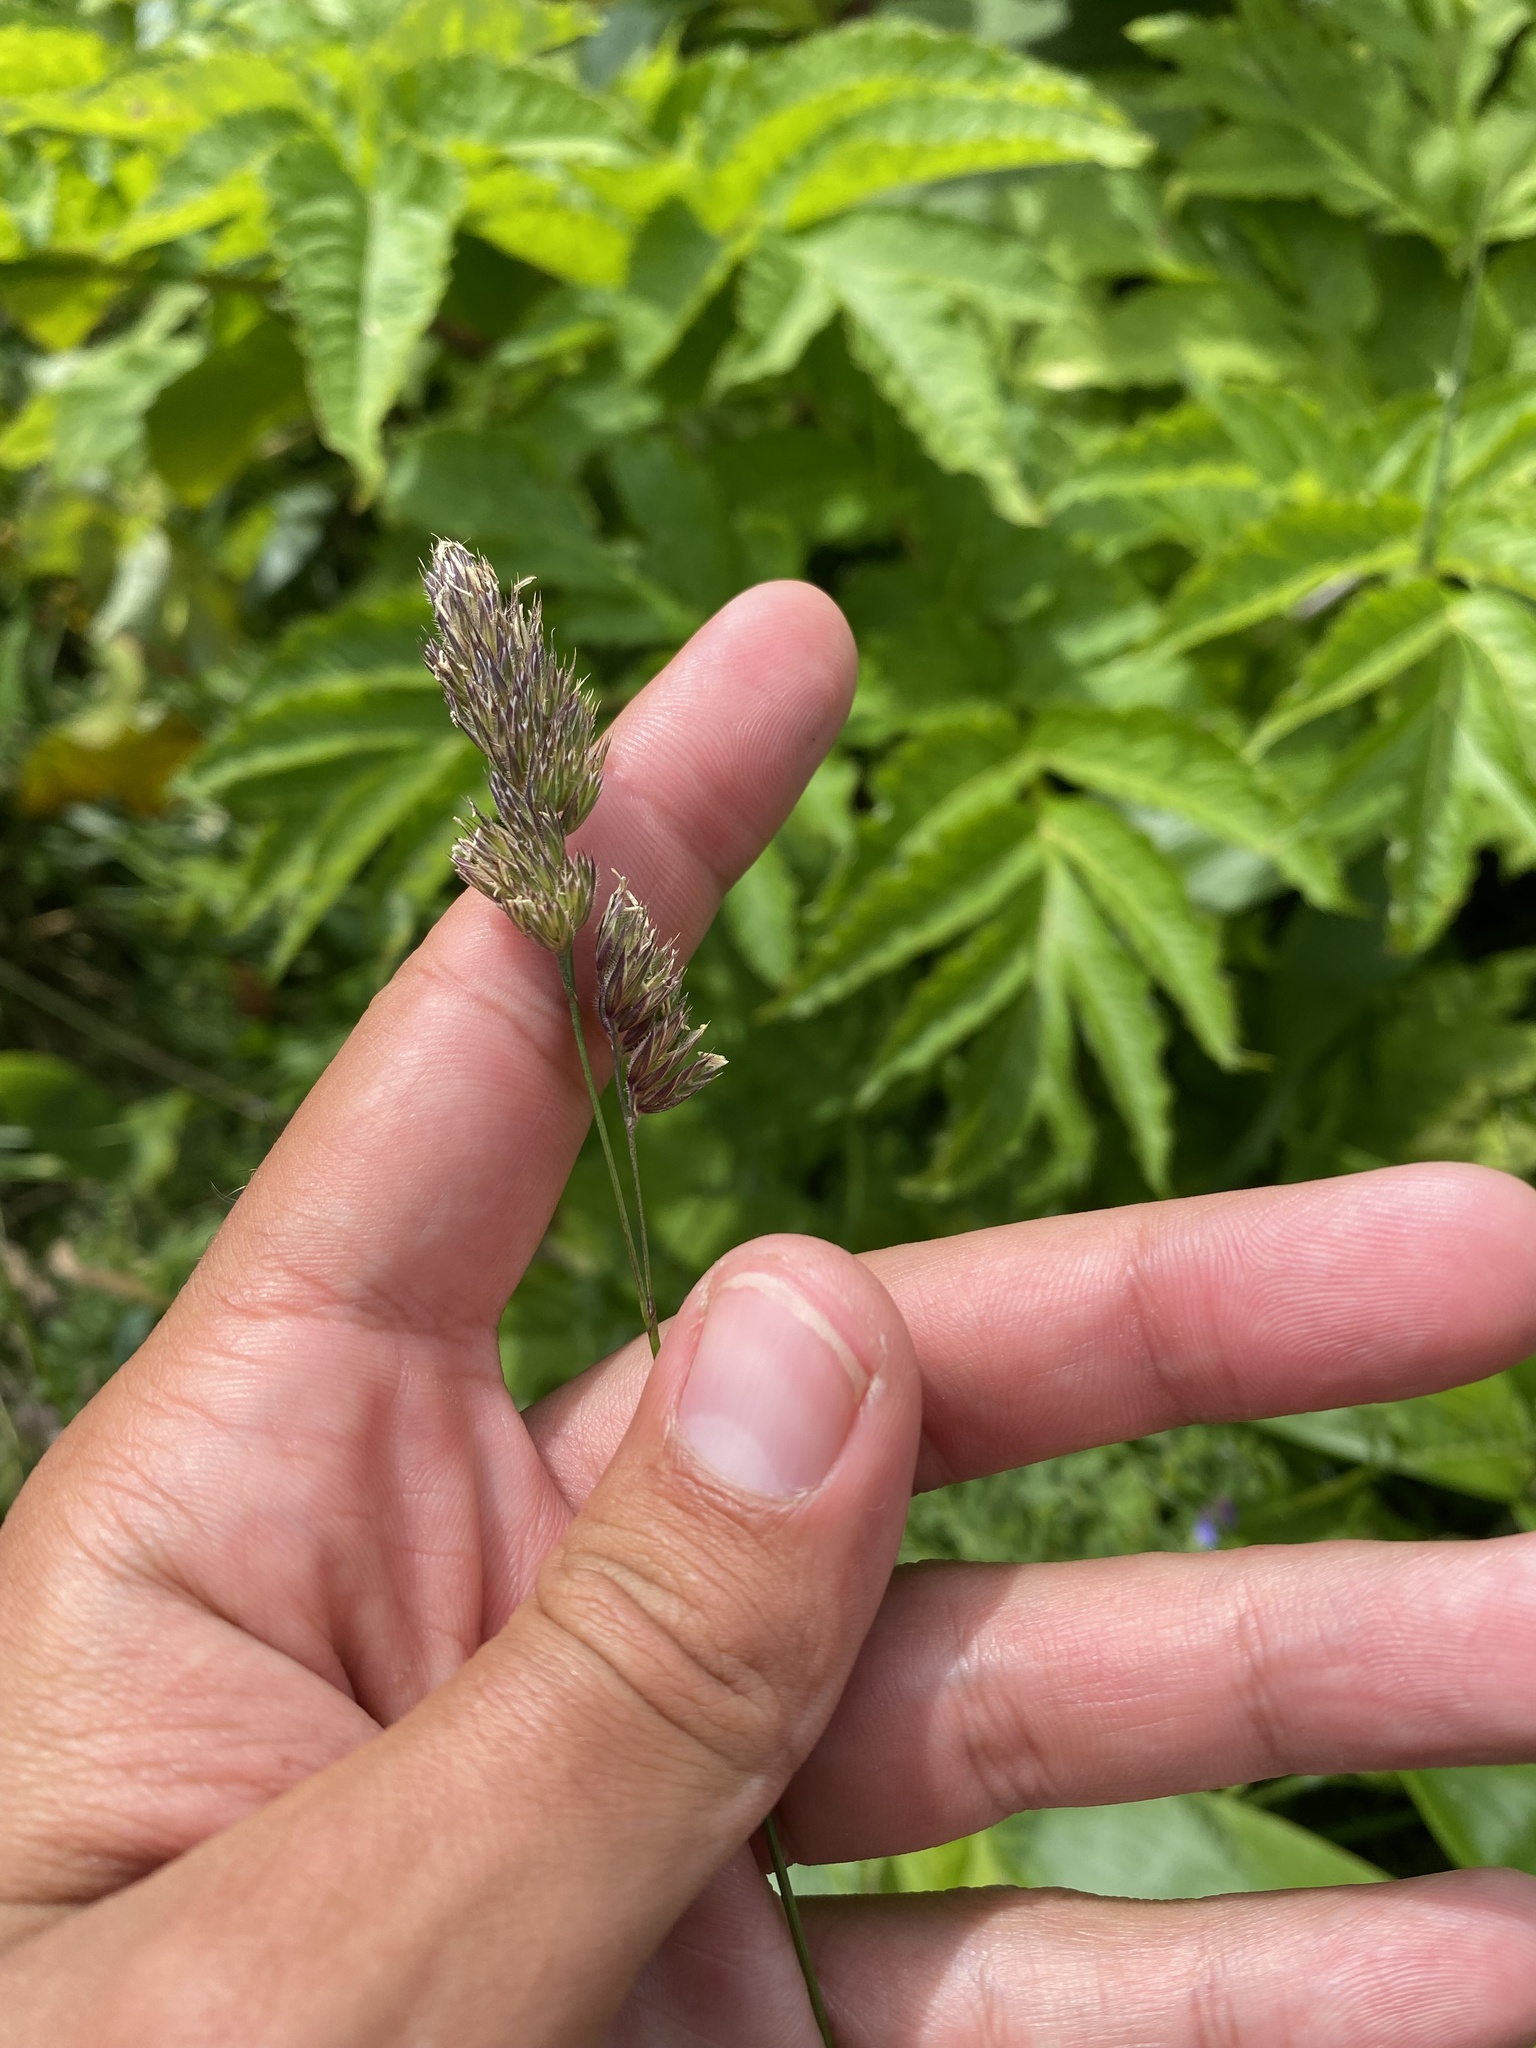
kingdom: Plantae
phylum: Tracheophyta
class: Liliopsida
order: Poales
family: Poaceae
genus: Dactylis
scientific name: Dactylis glomerata
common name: Orchardgrass
